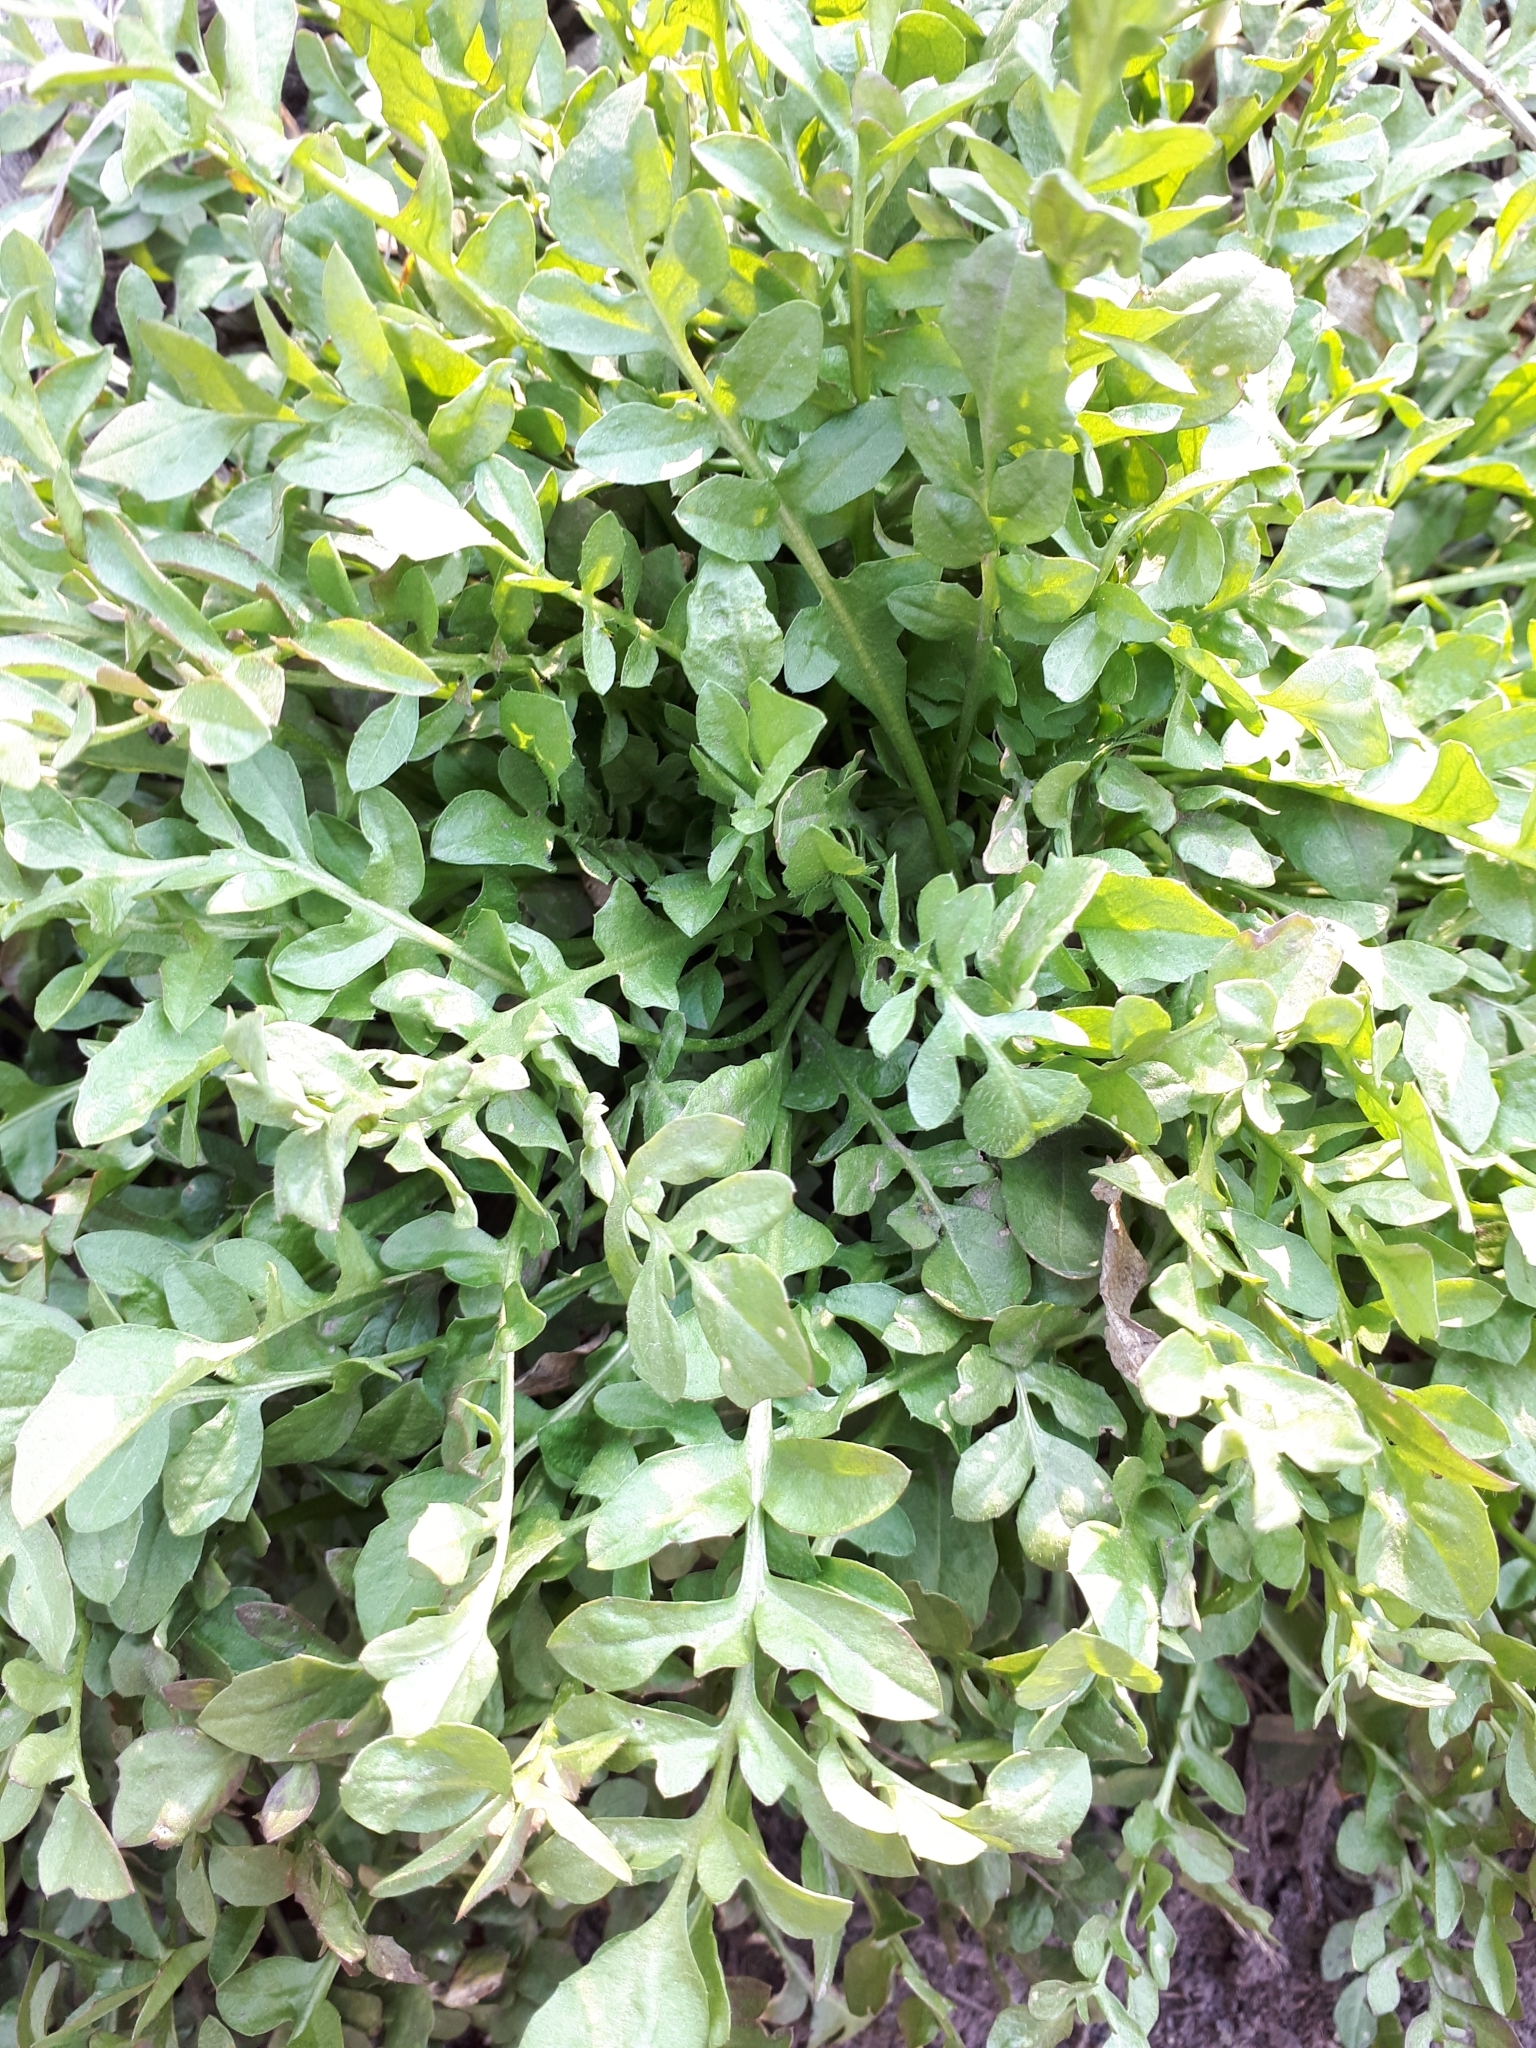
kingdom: Plantae
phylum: Tracheophyta
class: Magnoliopsida
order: Brassicales
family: Brassicaceae
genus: Capsella
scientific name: Capsella bursa-pastoris
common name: Shepherd's purse
